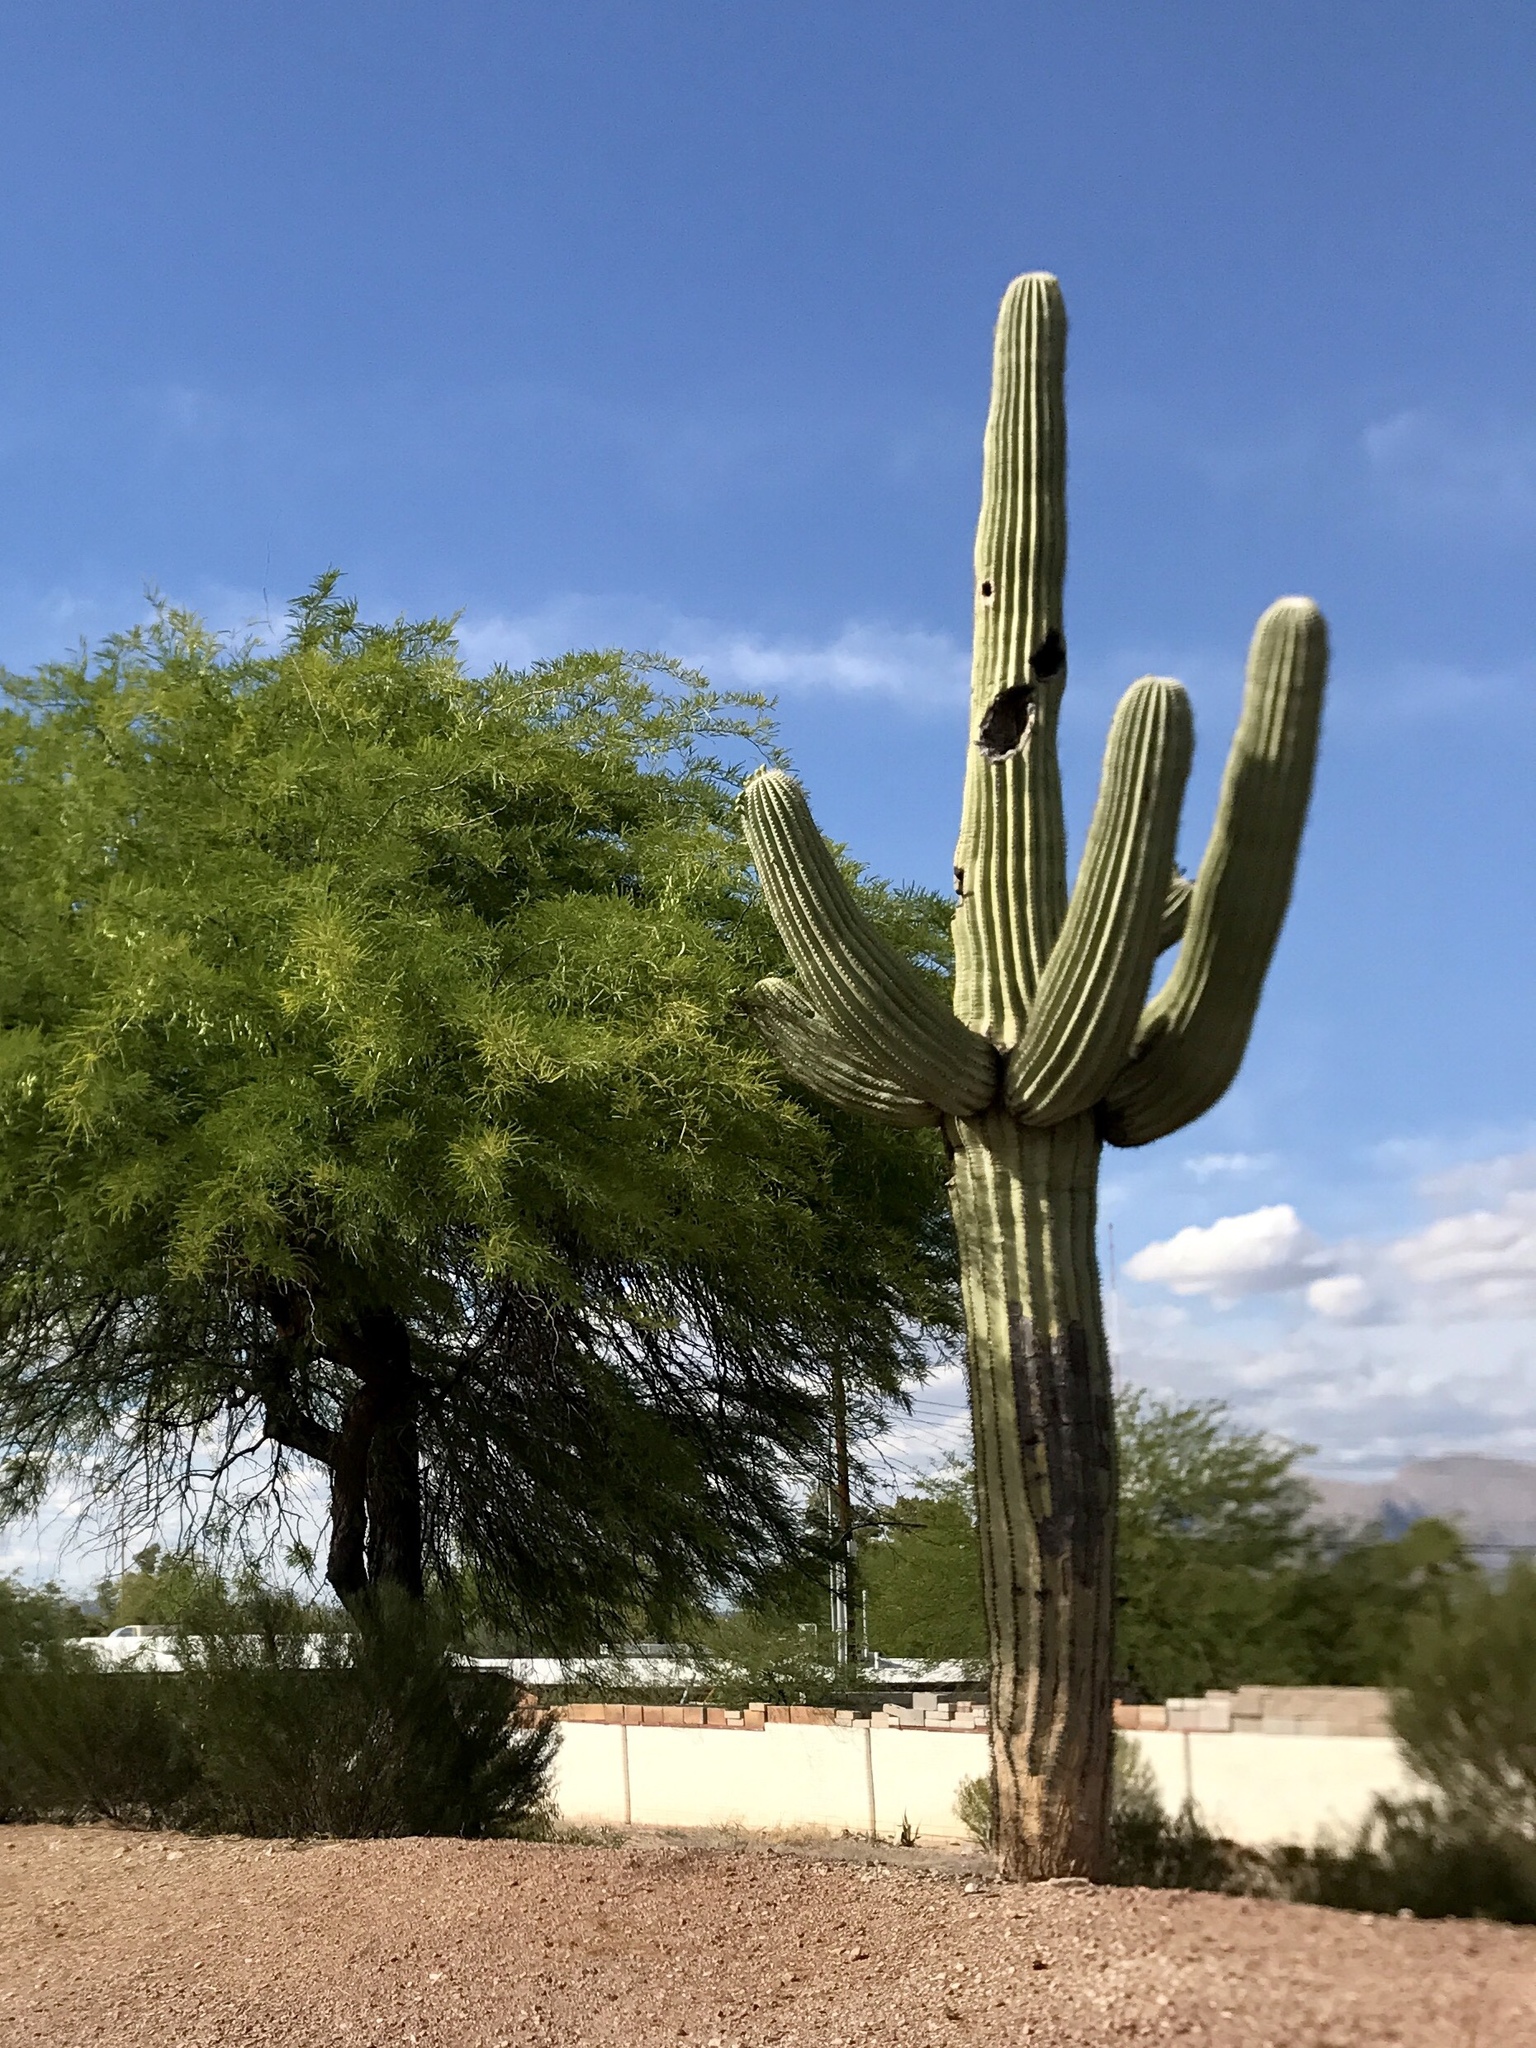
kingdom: Plantae
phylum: Tracheophyta
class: Magnoliopsida
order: Caryophyllales
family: Cactaceae
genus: Carnegiea
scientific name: Carnegiea gigantea
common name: Saguaro
